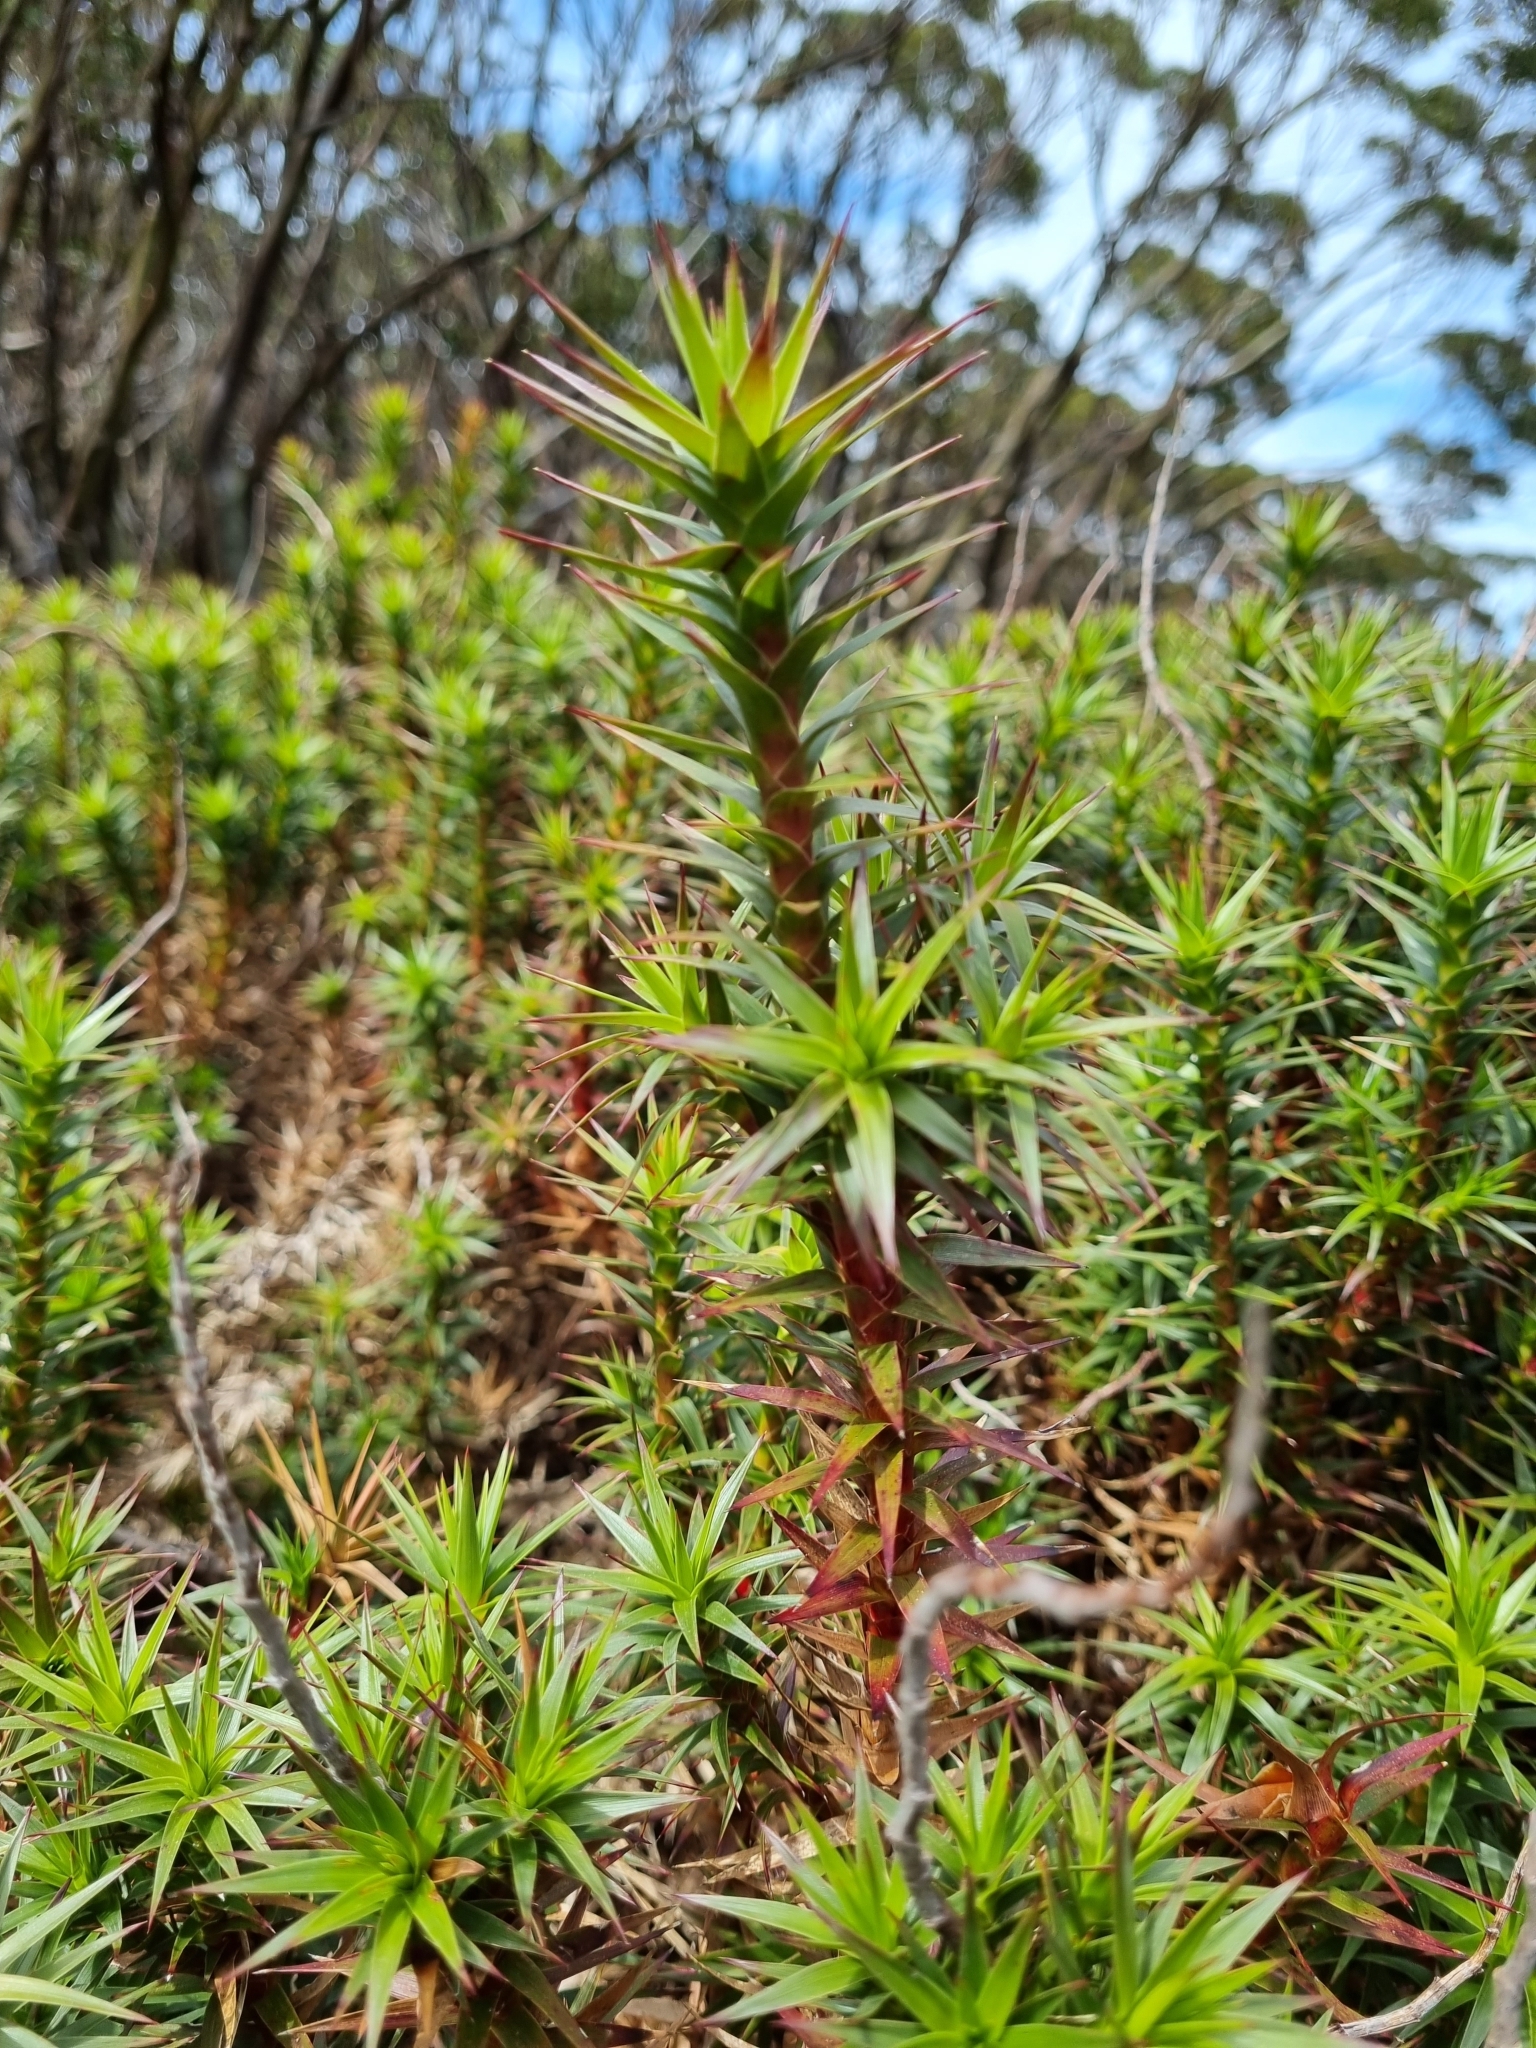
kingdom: Plantae
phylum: Tracheophyta
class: Magnoliopsida
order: Ericales
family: Ericaceae
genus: Dracophyllum
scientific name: Dracophyllum continentis
